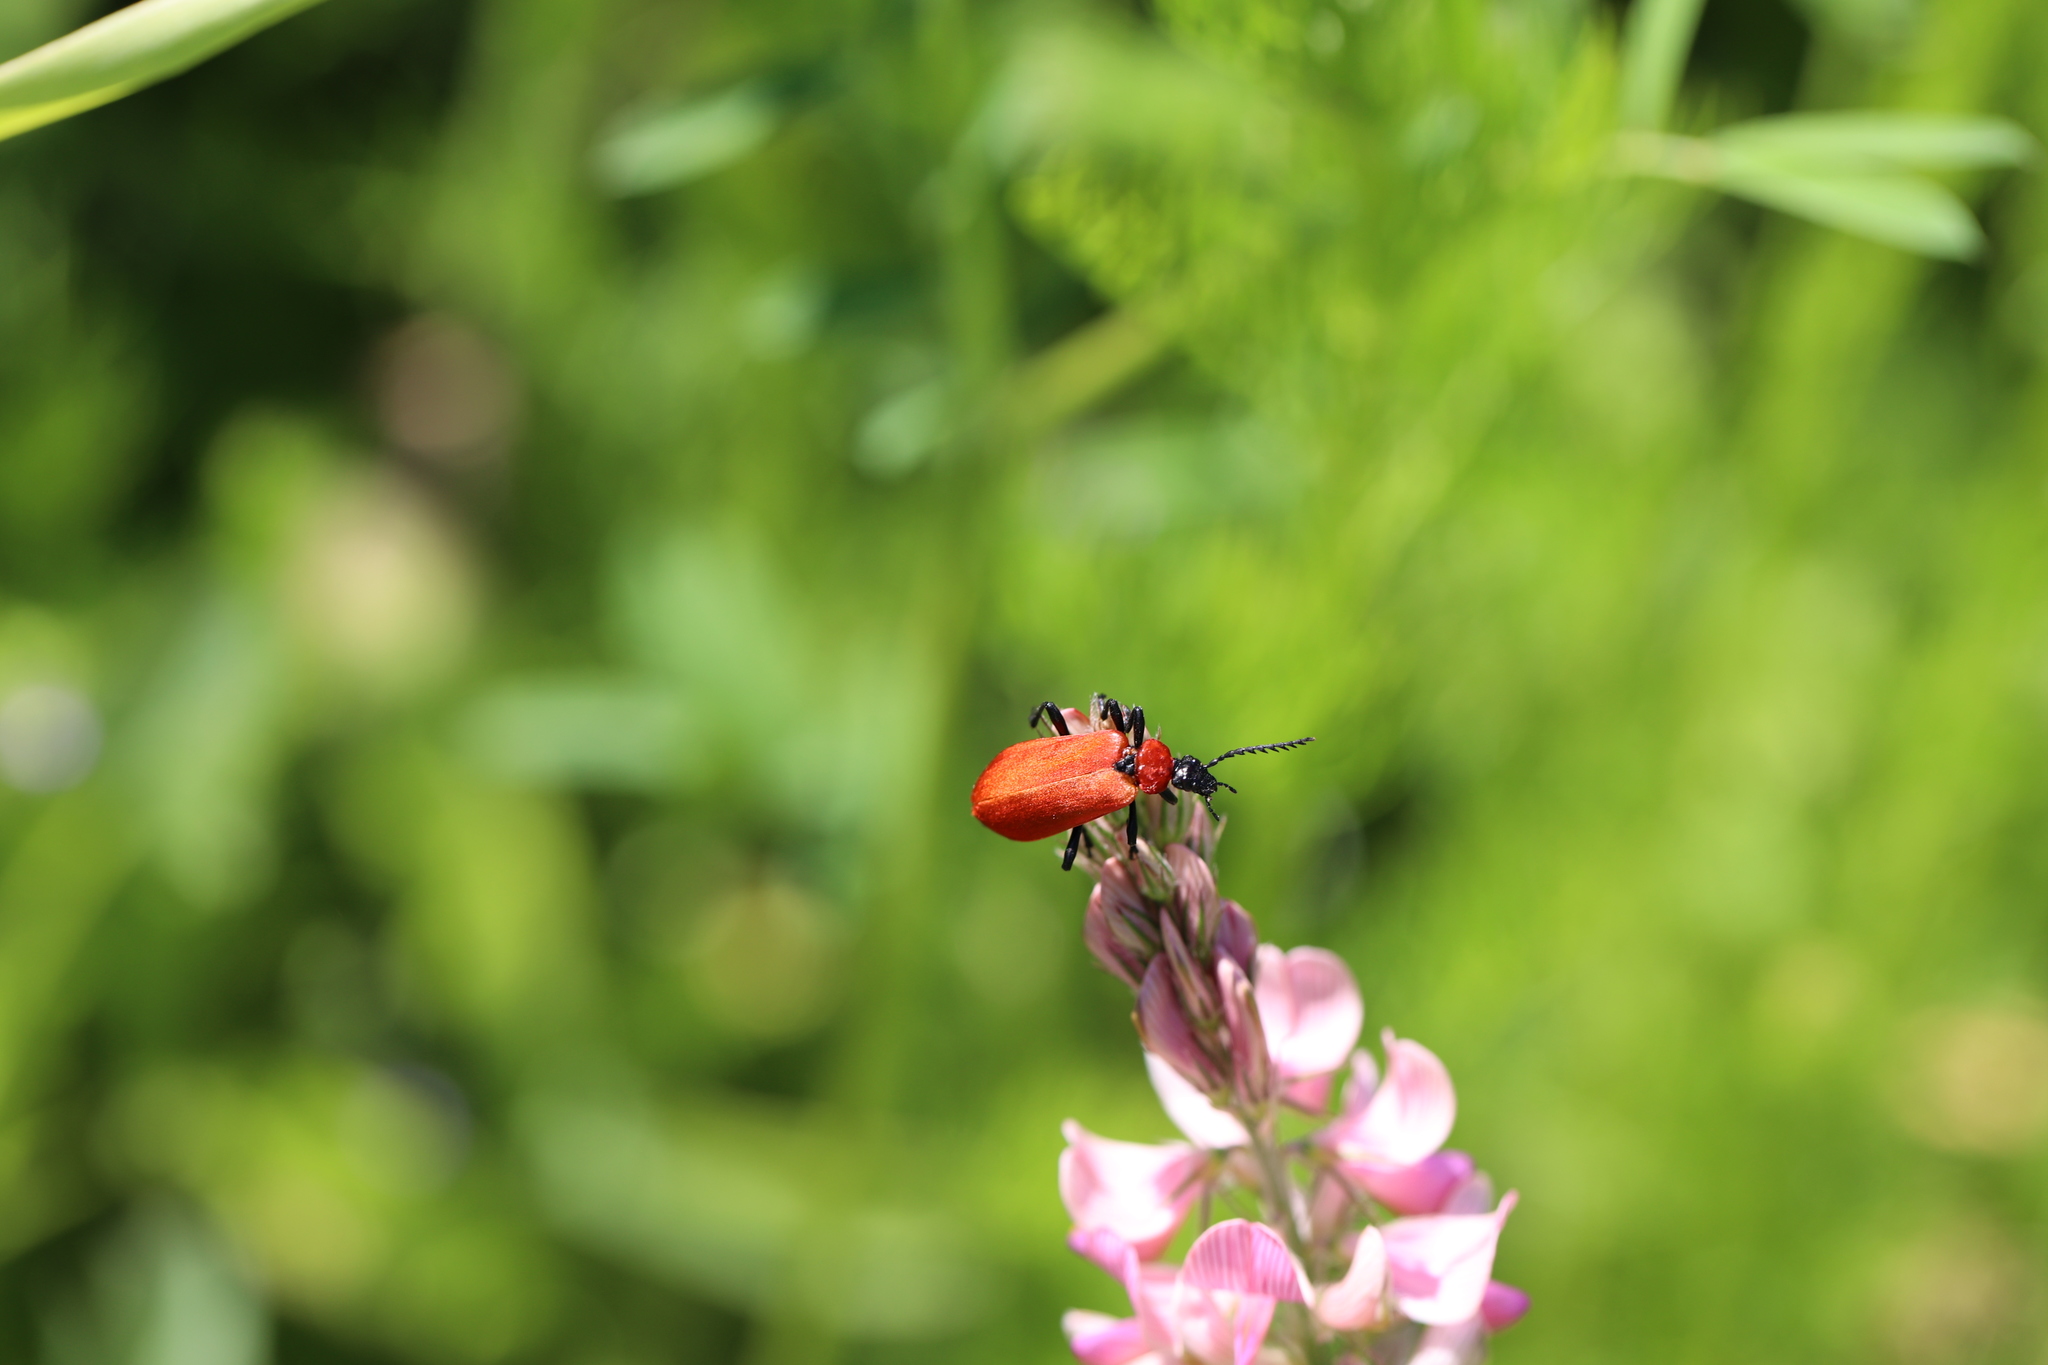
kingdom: Animalia
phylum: Arthropoda
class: Insecta
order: Coleoptera
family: Pyrochroidae
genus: Pyrochroa
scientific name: Pyrochroa coccinea
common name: Black-headed cardinal beetle
